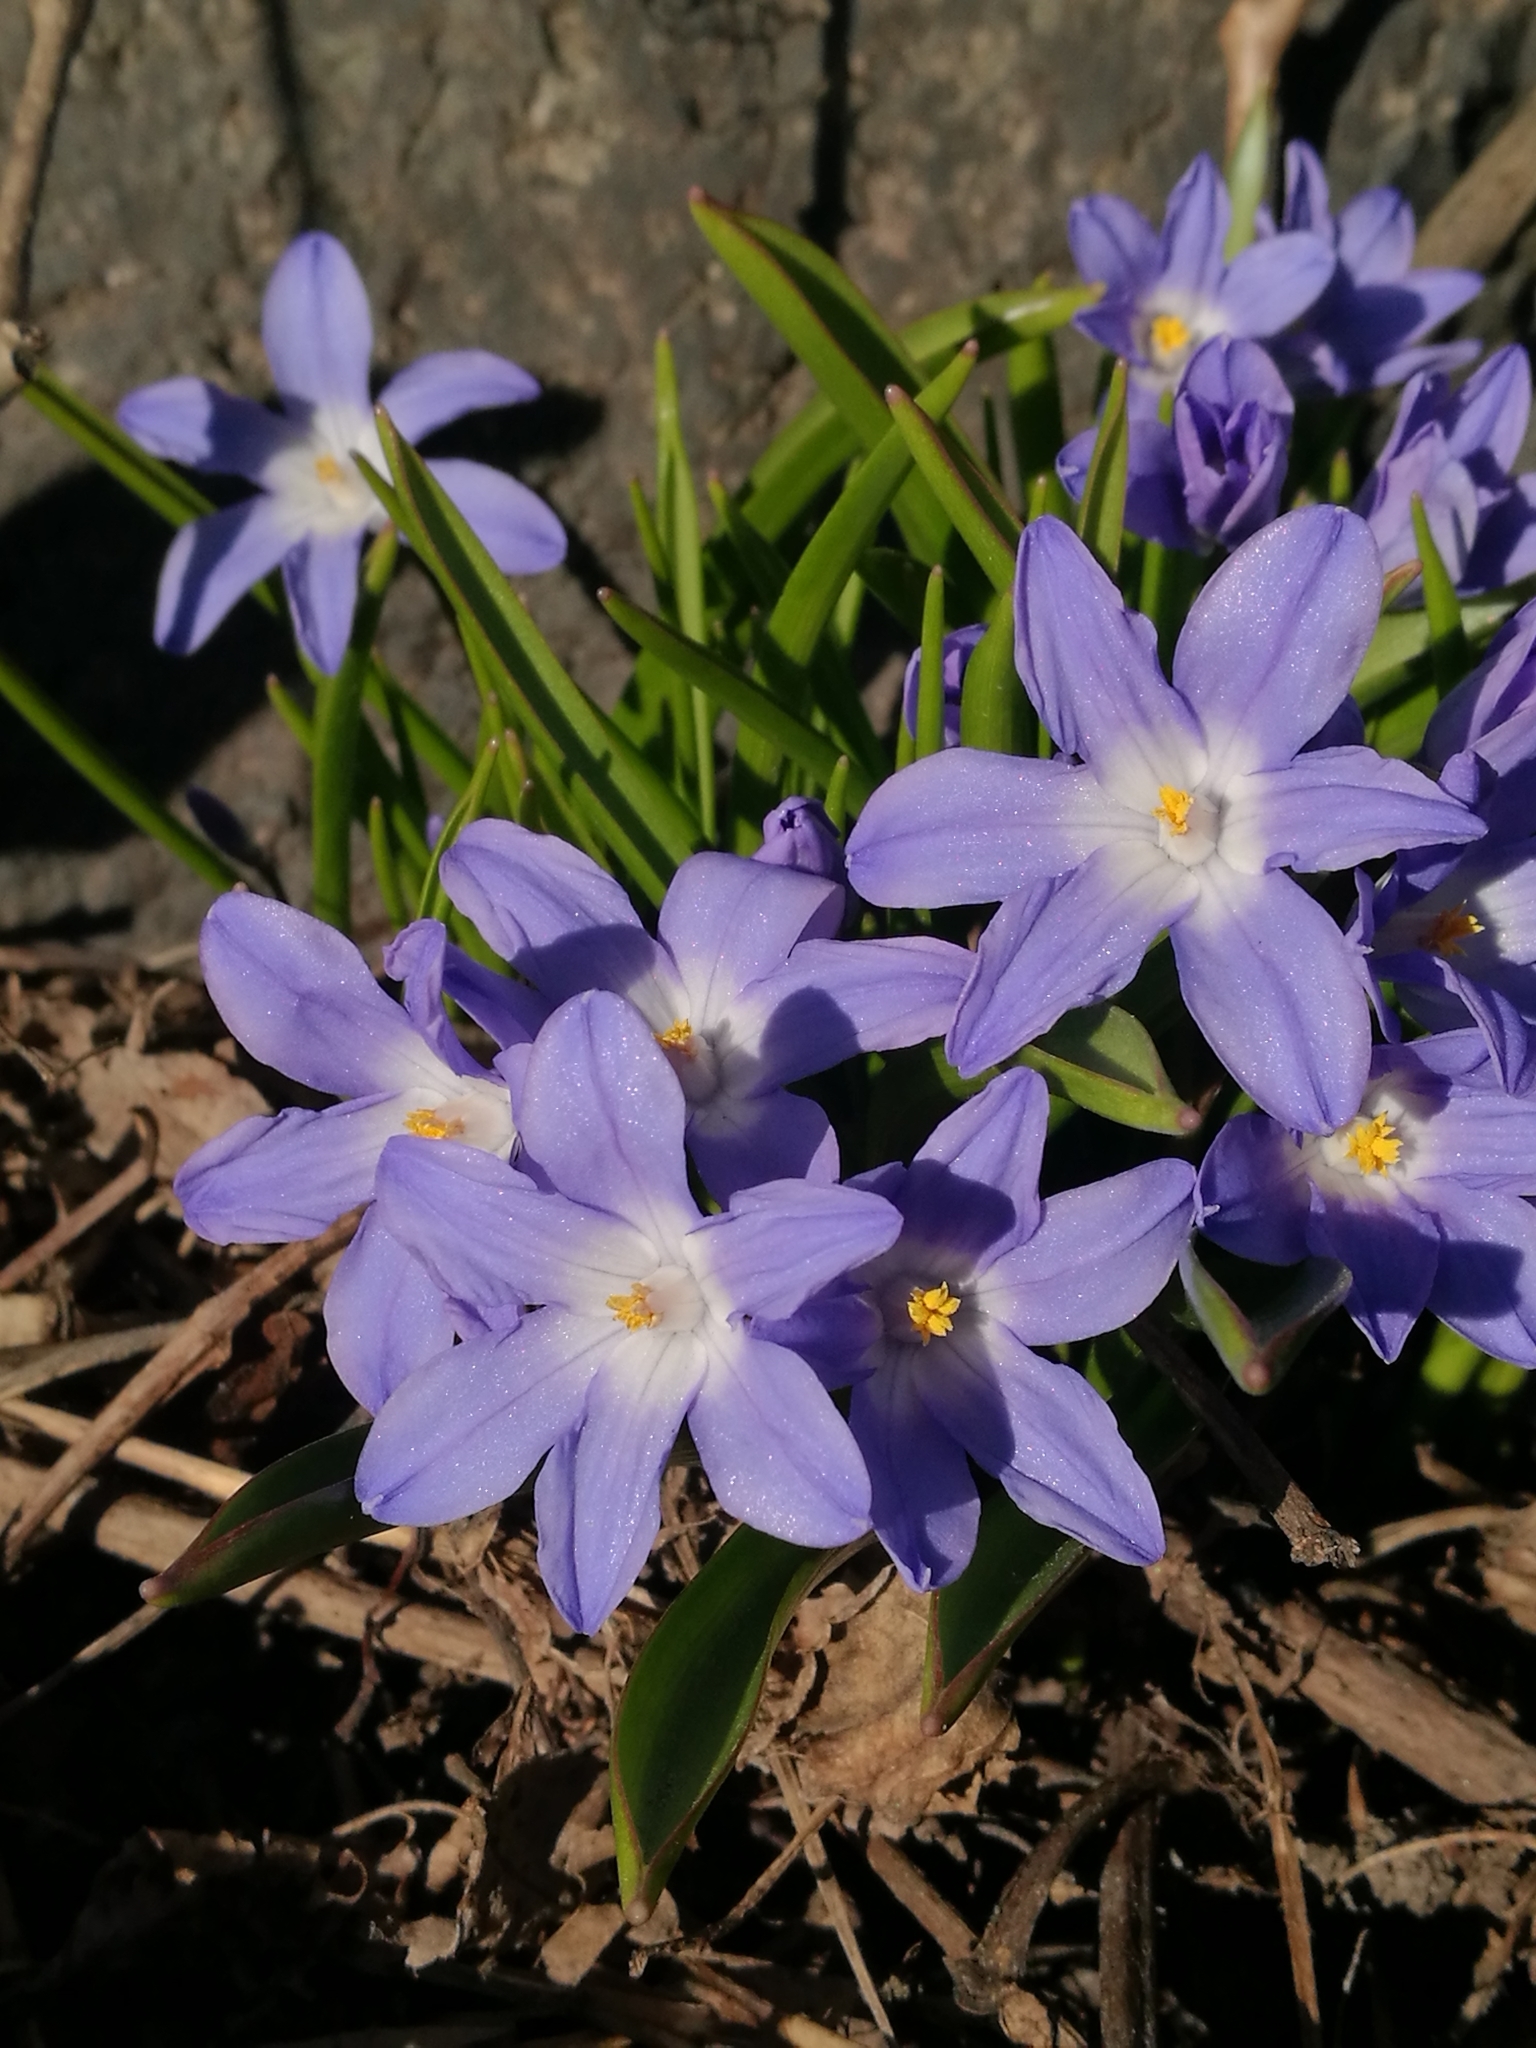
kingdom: Plantae
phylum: Tracheophyta
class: Liliopsida
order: Asparagales
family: Asparagaceae
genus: Scilla
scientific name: Scilla luciliae
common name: Boissier's glory-of-the-snow
